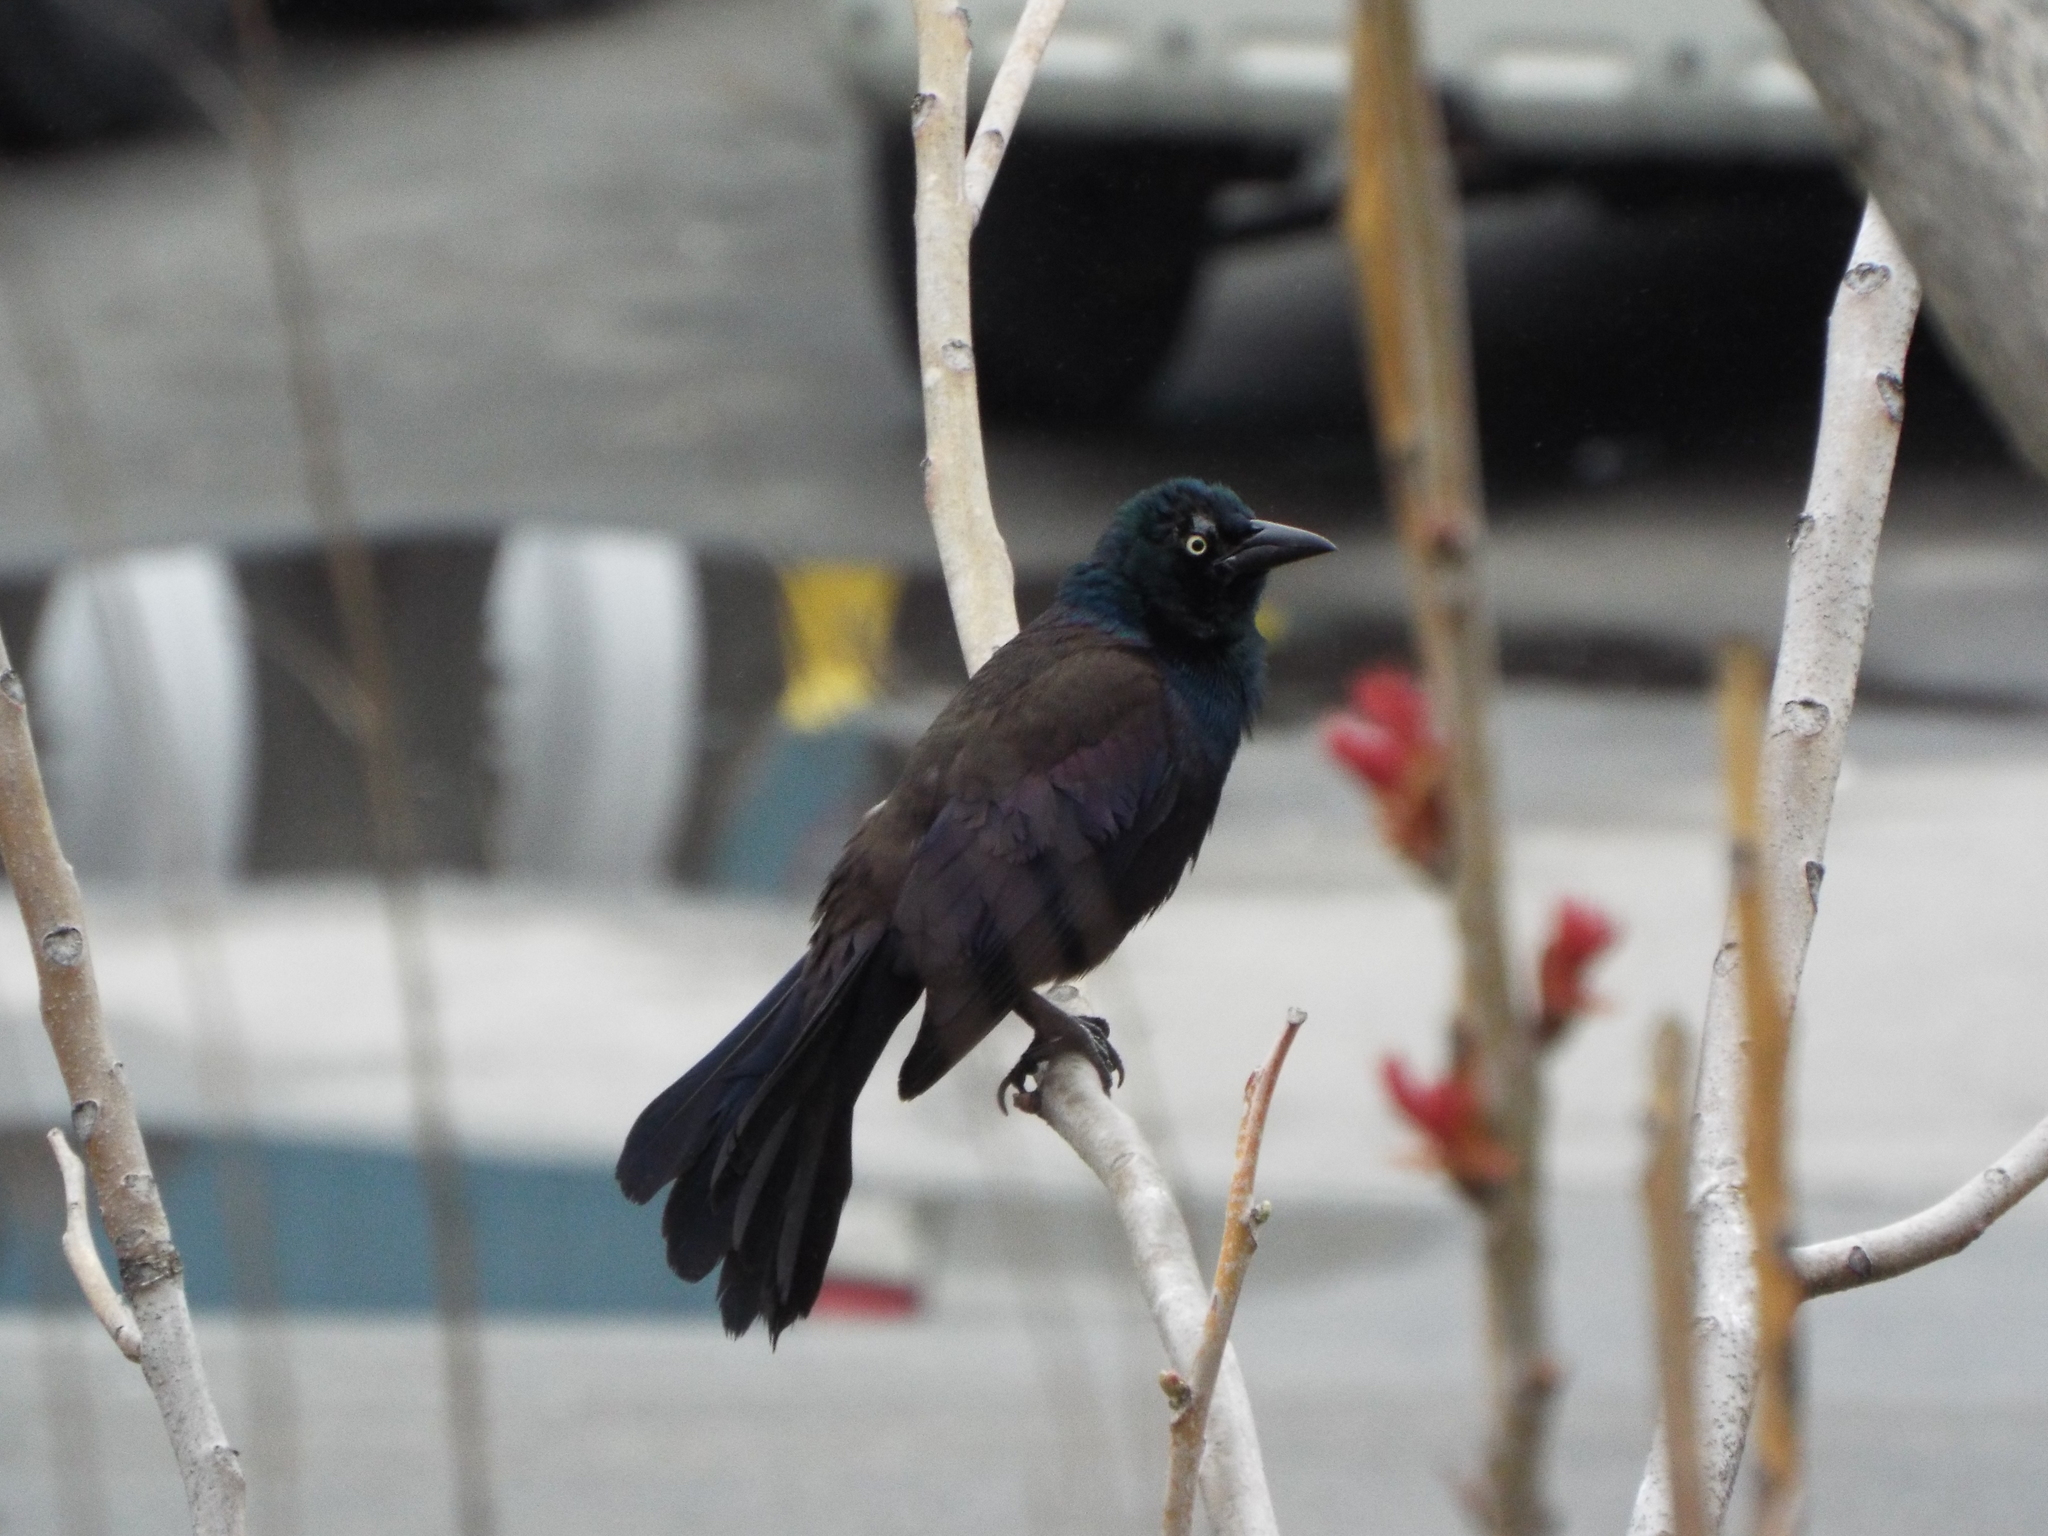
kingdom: Animalia
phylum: Chordata
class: Aves
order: Passeriformes
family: Icteridae
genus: Quiscalus
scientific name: Quiscalus quiscula
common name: Common grackle
